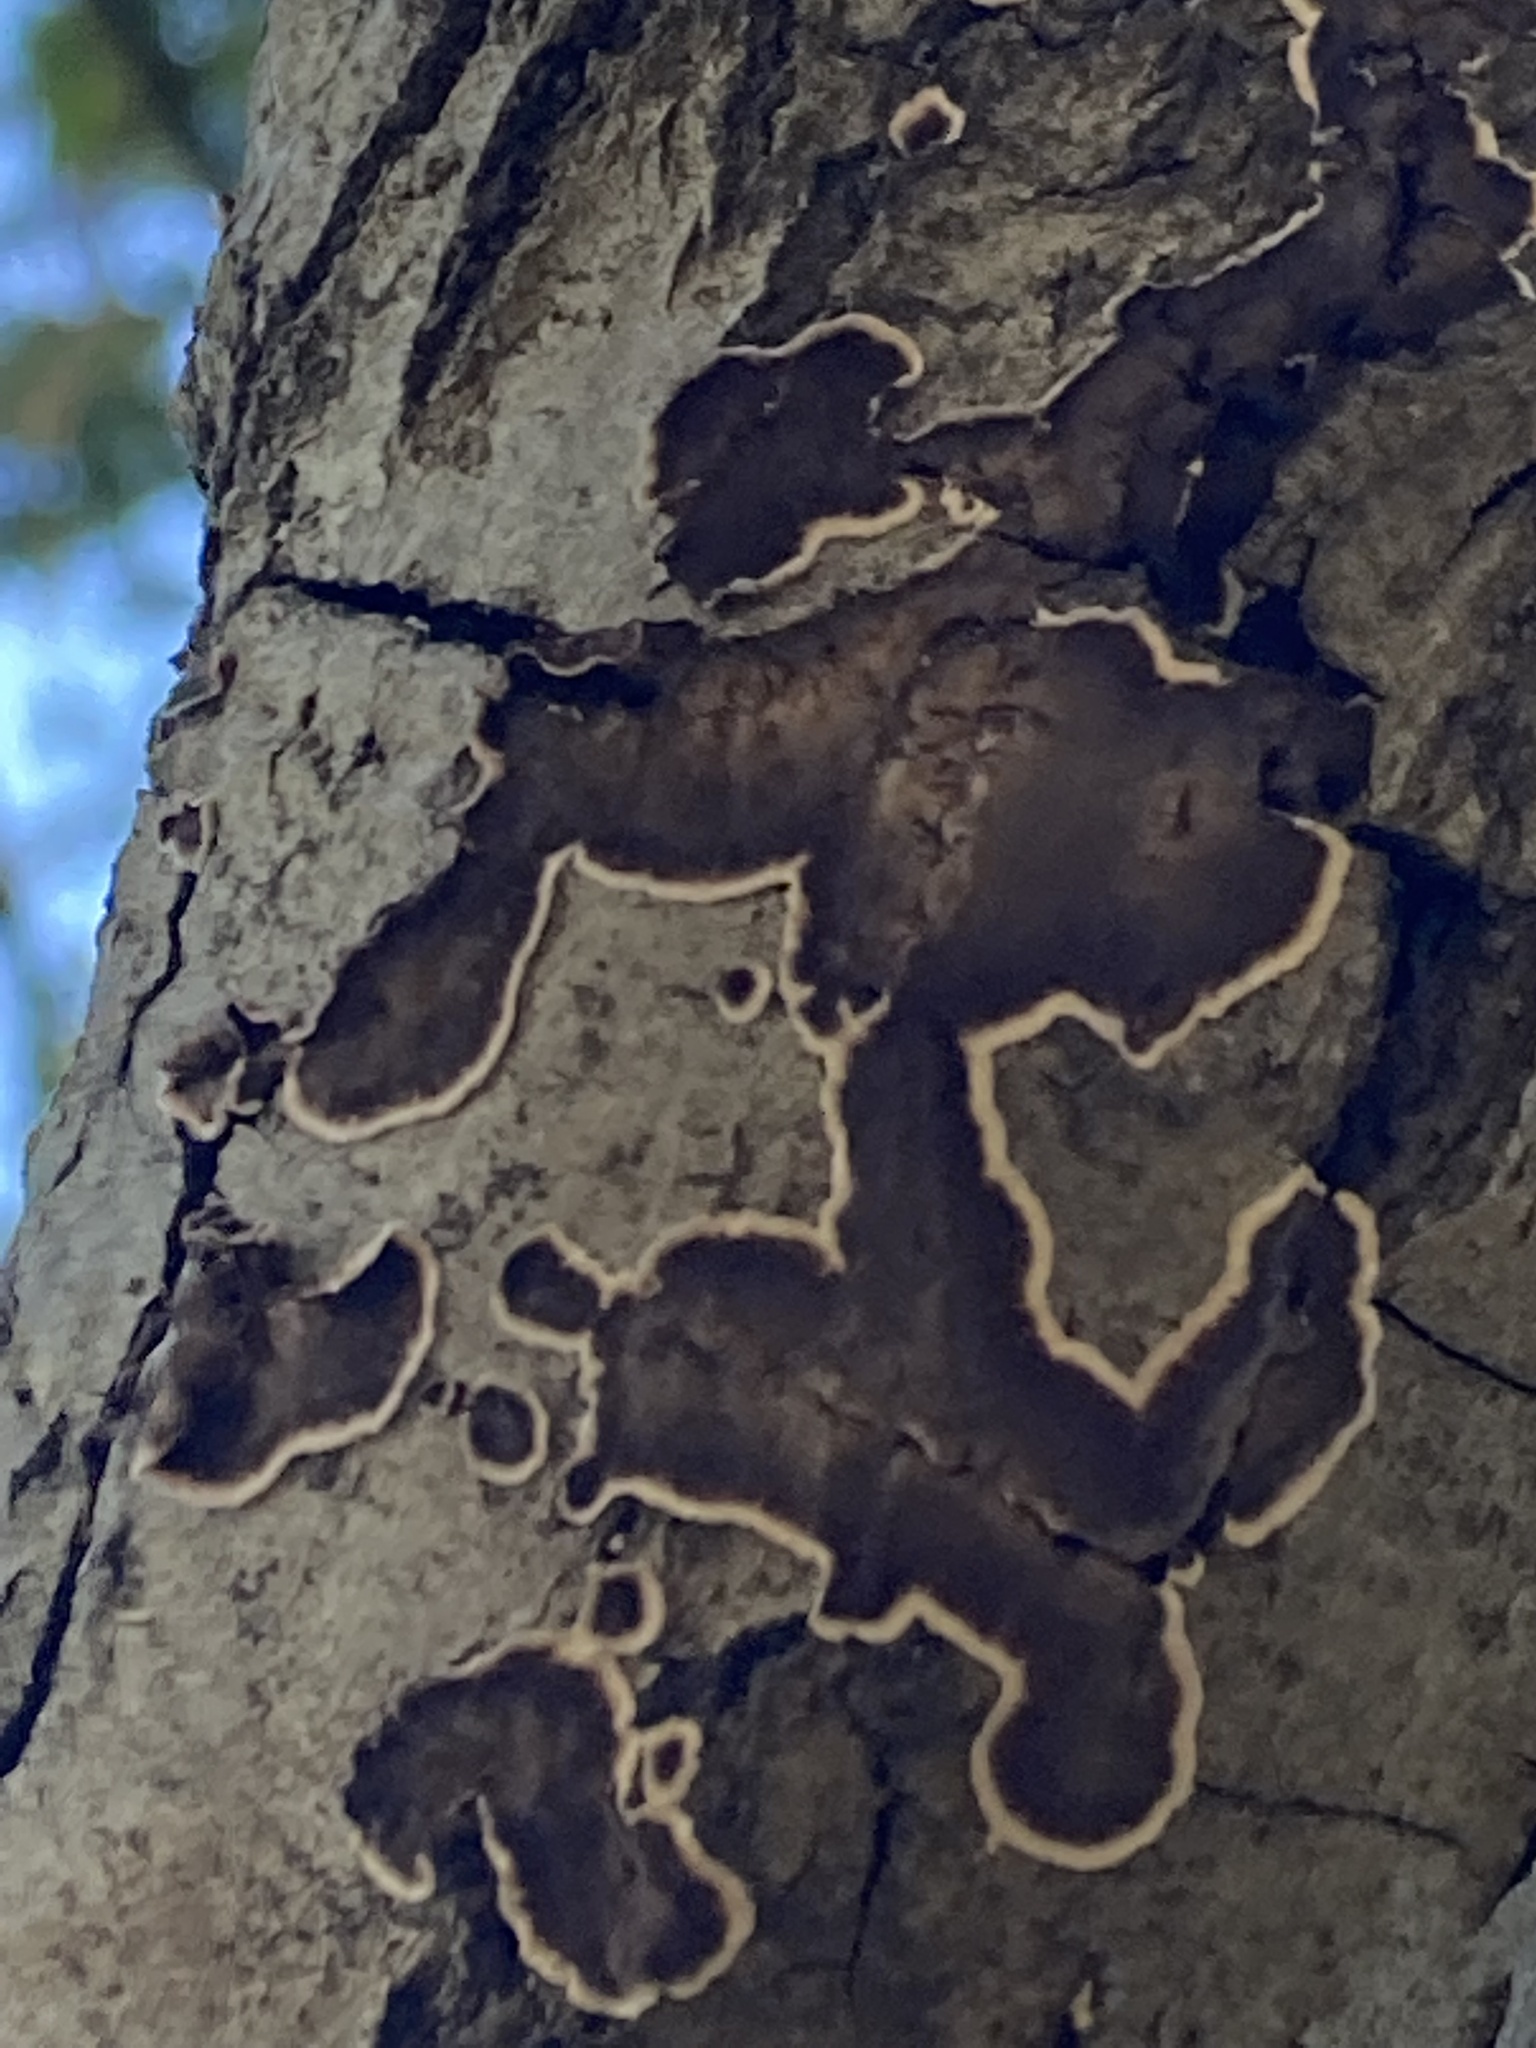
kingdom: Fungi
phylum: Basidiomycota
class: Agaricomycetes
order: Russulales
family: Peniophoraceae
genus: Peniophora
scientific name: Peniophora albobadia
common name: Giraffe spots
